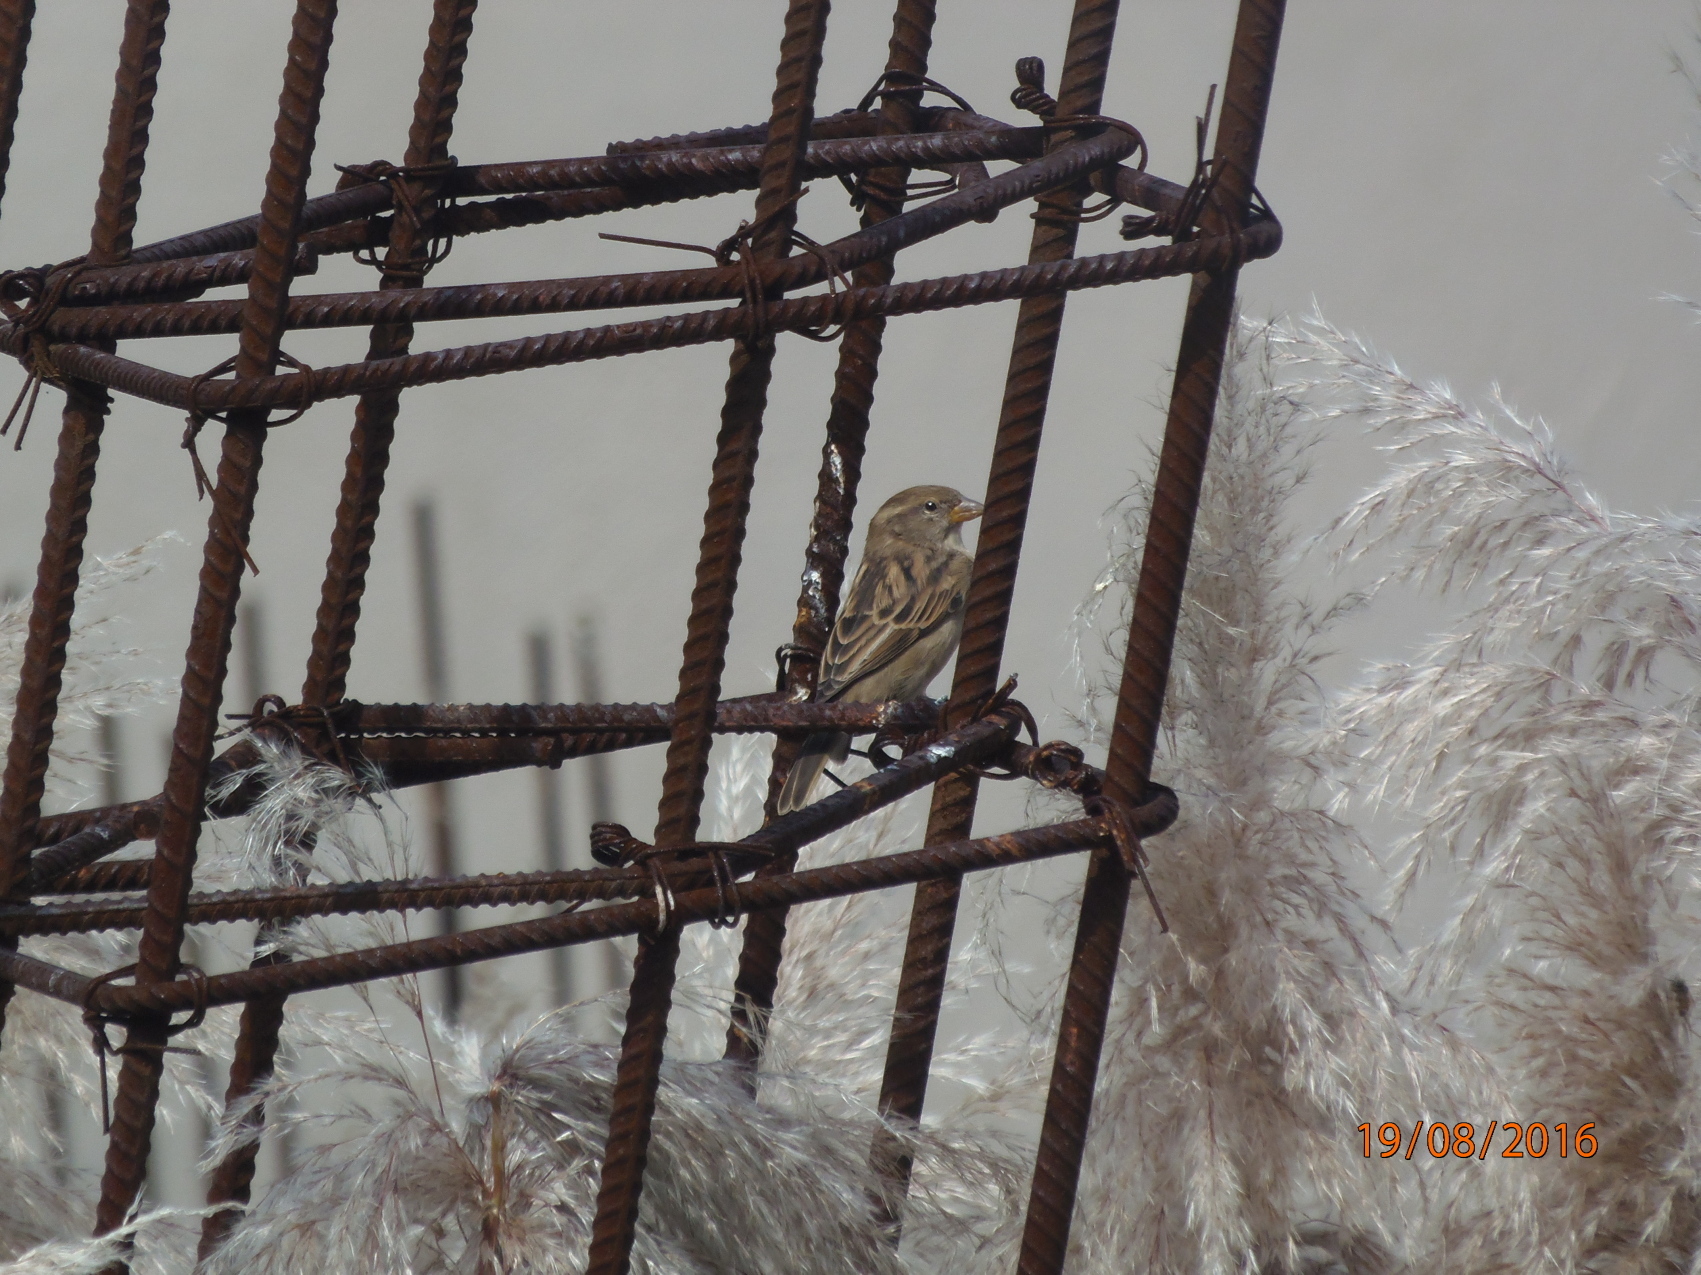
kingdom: Animalia
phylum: Chordata
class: Aves
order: Passeriformes
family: Passeridae
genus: Passer
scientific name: Passer domesticus
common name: House sparrow
